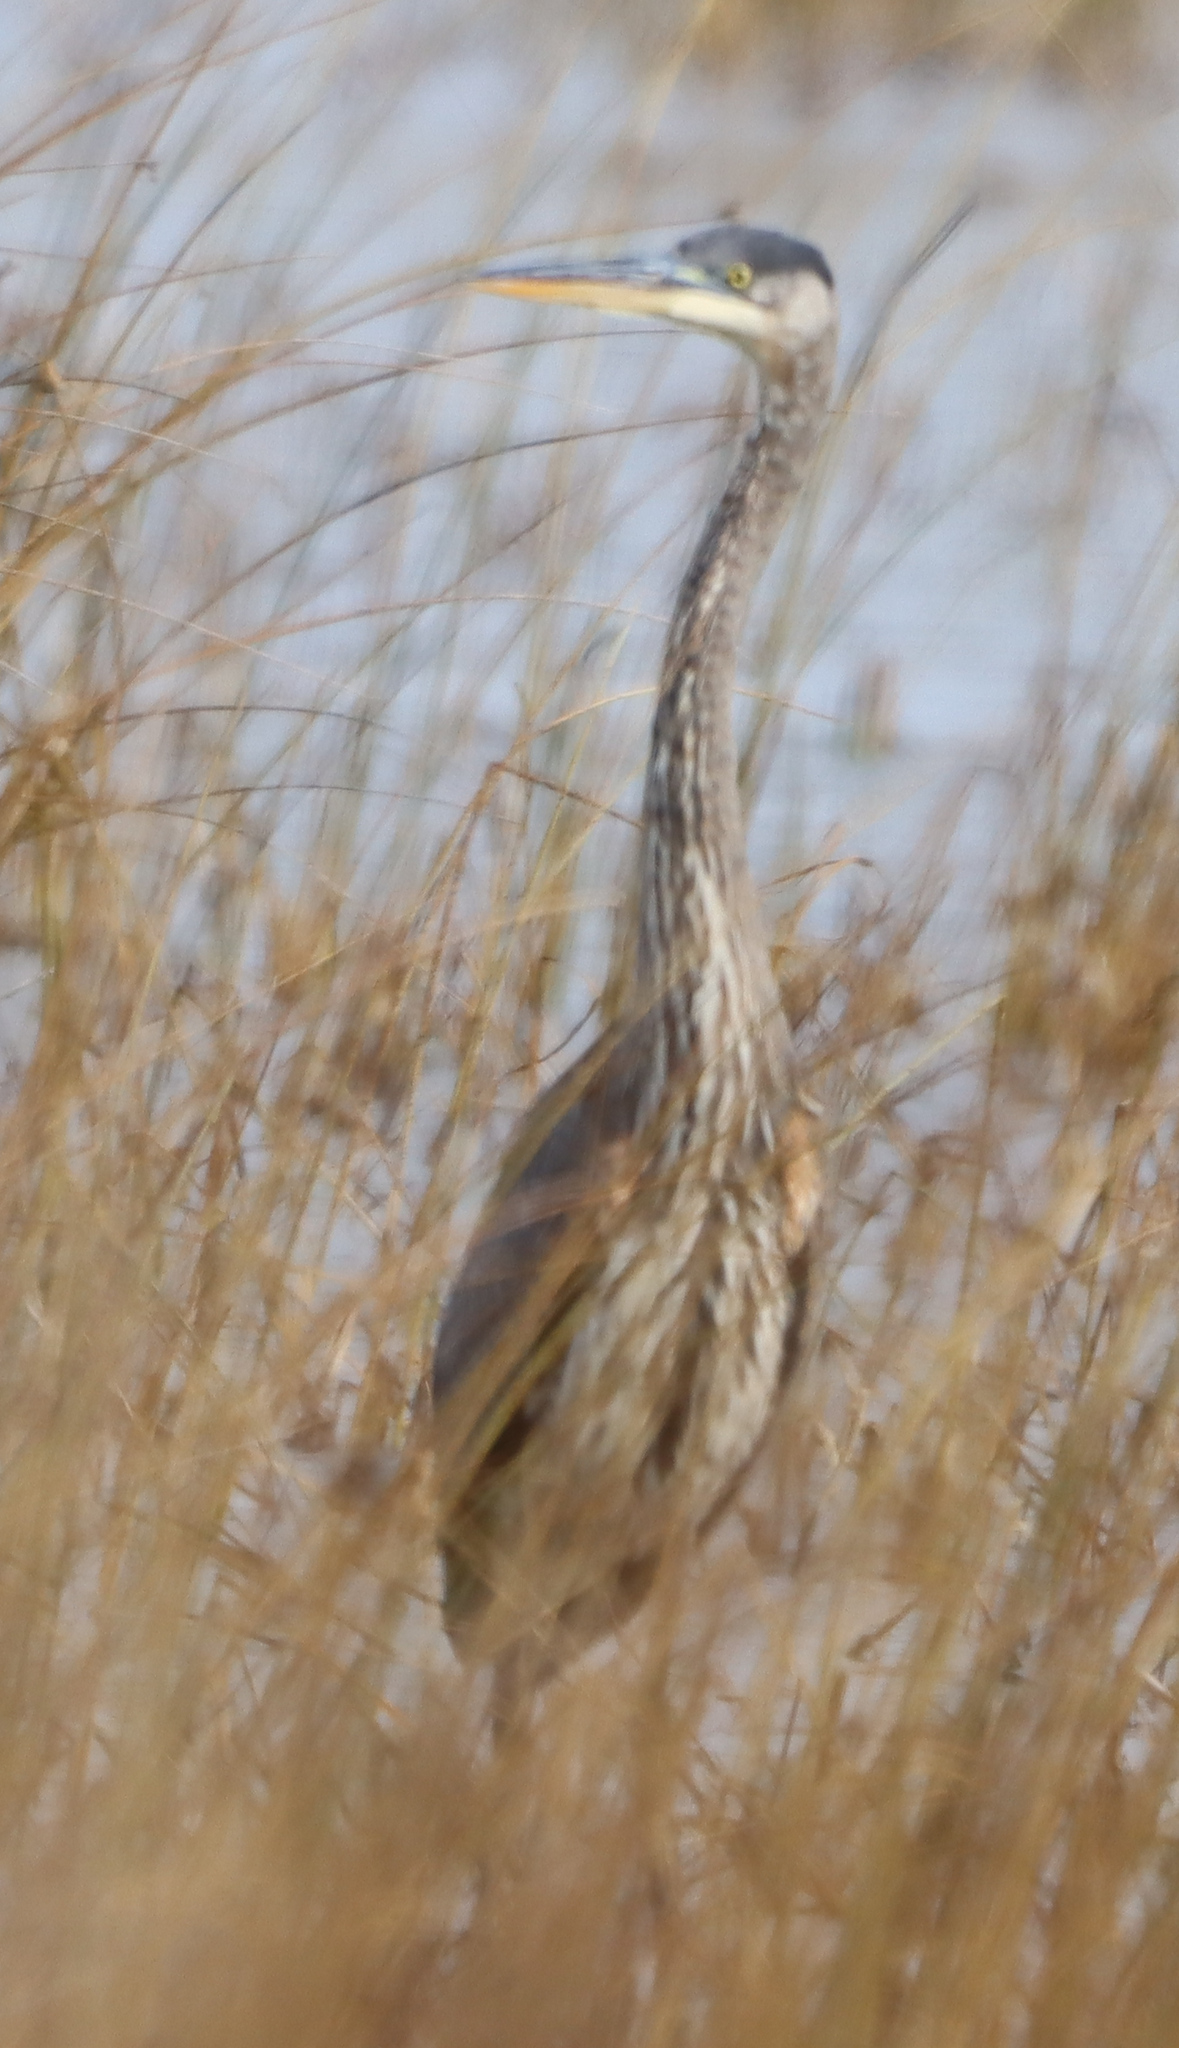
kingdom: Animalia
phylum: Chordata
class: Aves
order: Pelecaniformes
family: Ardeidae
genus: Ardea
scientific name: Ardea herodias
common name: Great blue heron
